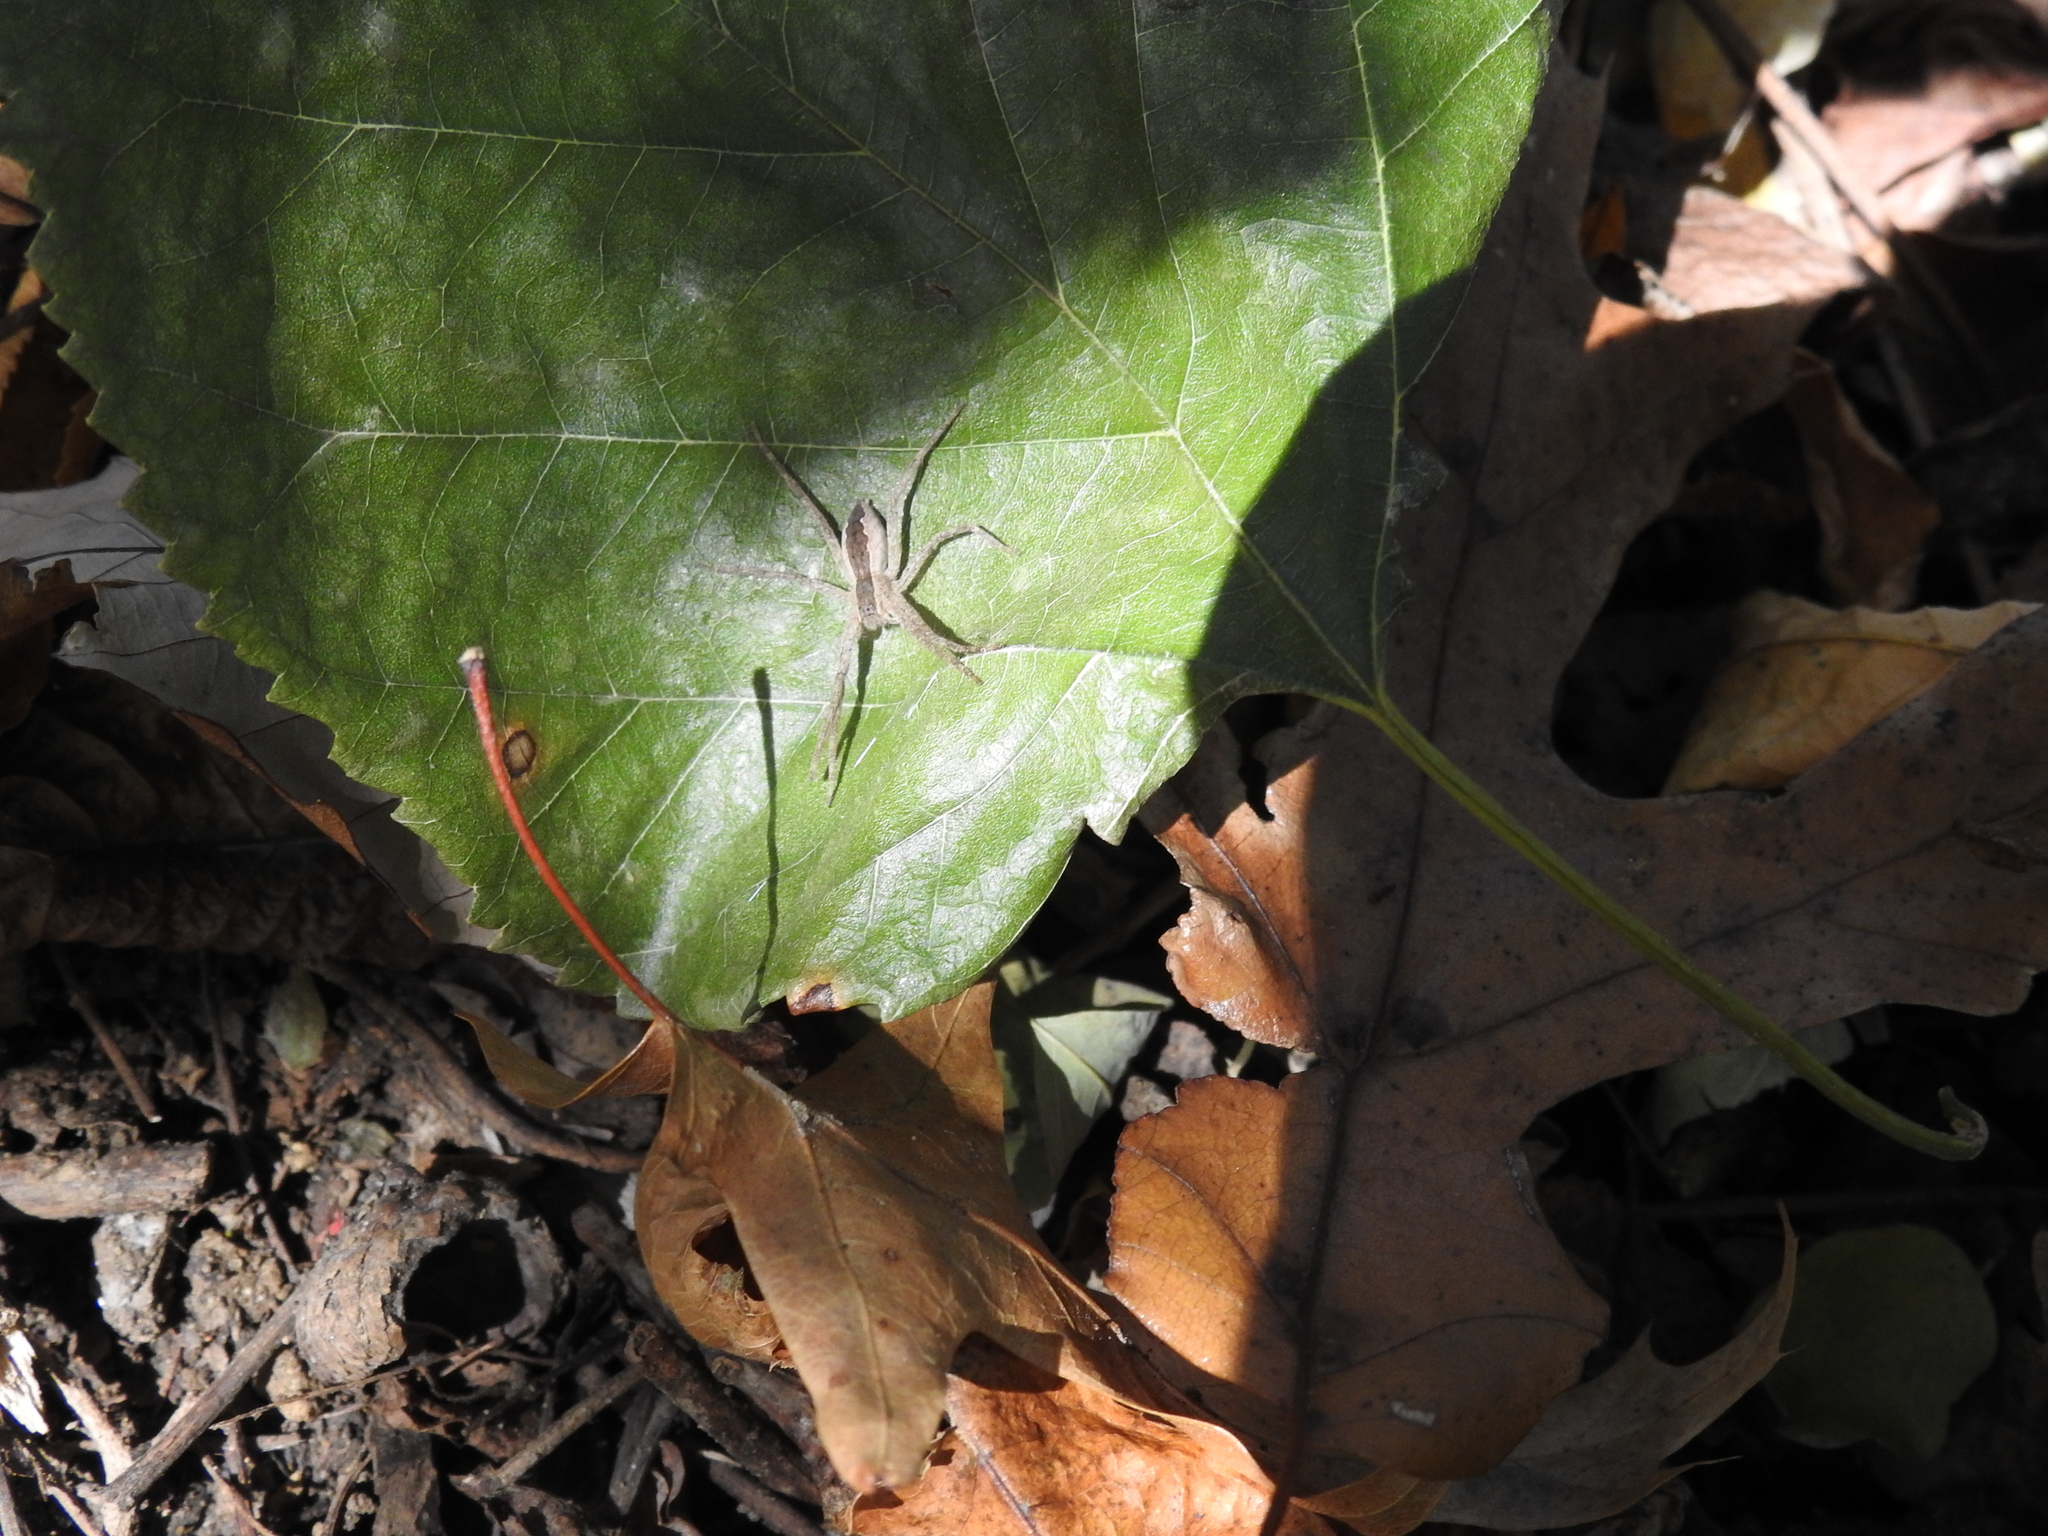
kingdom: Animalia
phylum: Arthropoda
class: Arachnida
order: Araneae
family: Pisauridae
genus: Pisaurina
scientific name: Pisaurina mira
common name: American nursery web spider
